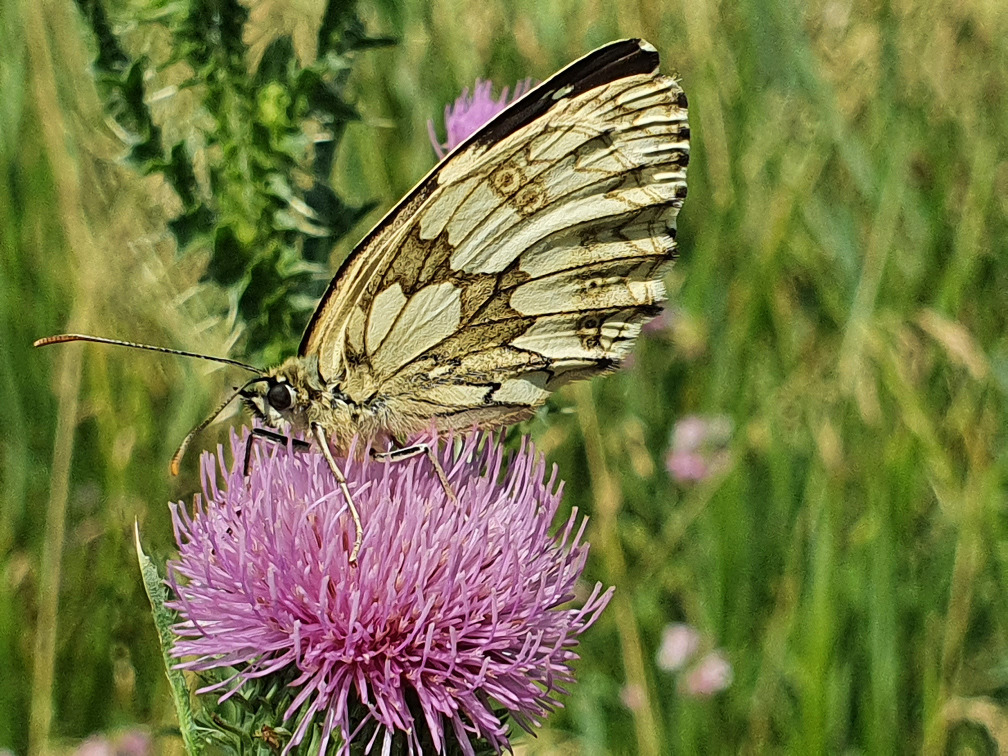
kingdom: Animalia
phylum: Arthropoda
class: Insecta
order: Lepidoptera
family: Nymphalidae
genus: Melanargia
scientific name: Melanargia galathea
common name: Marbled white
